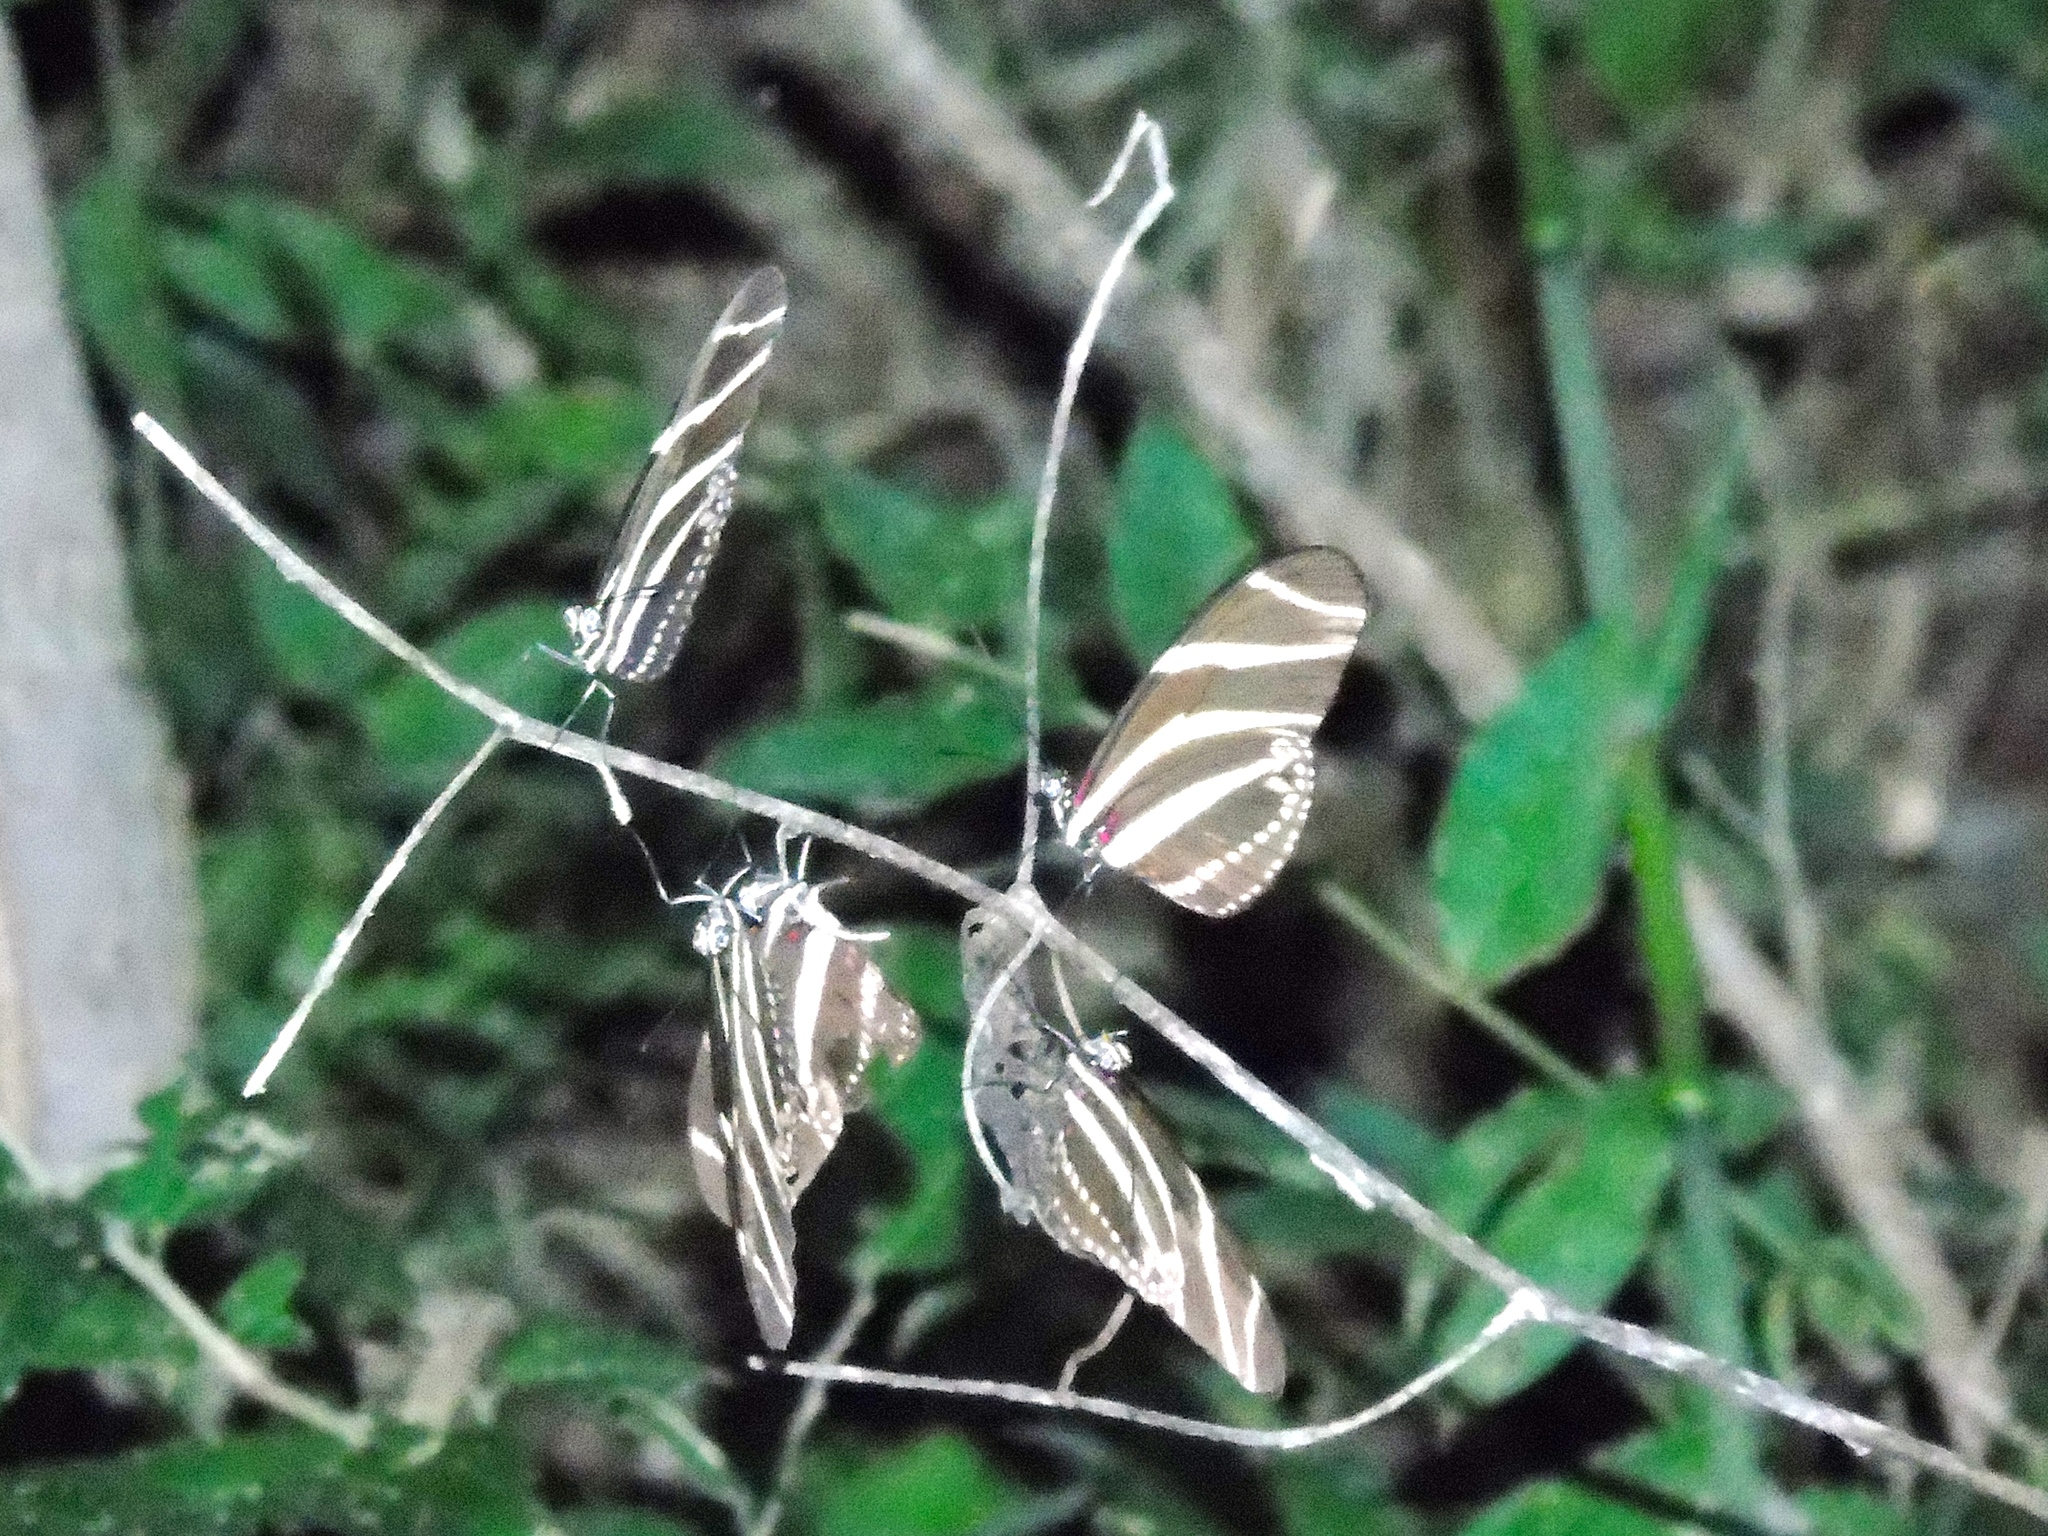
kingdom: Animalia
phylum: Arthropoda
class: Insecta
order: Lepidoptera
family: Nymphalidae
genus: Heliconius
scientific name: Heliconius charithonia
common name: Zebra long wing
